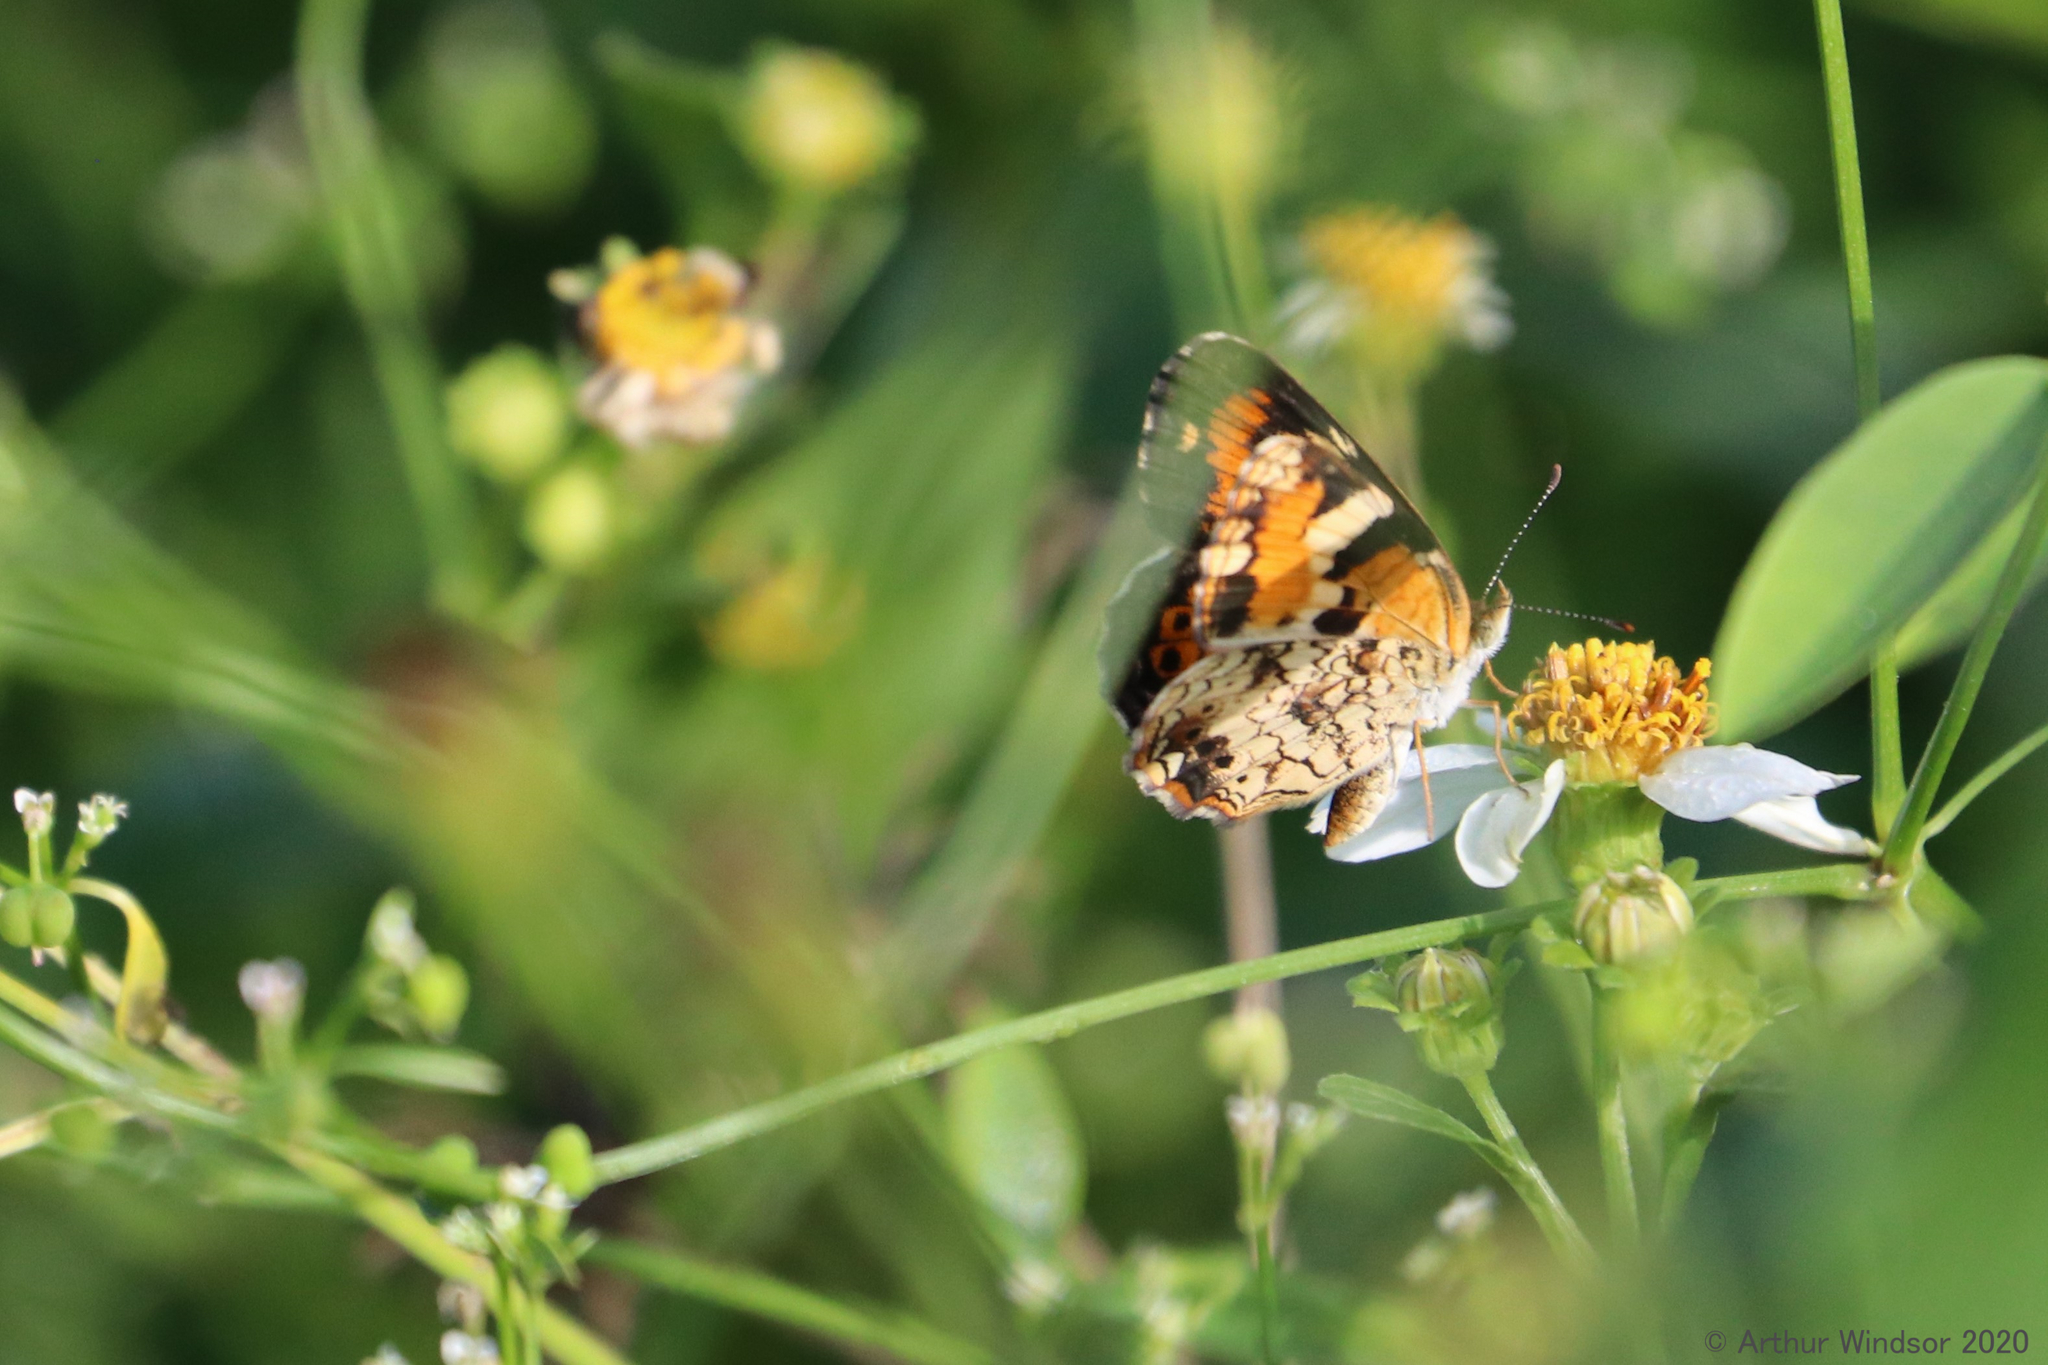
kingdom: Animalia
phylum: Arthropoda
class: Insecta
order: Lepidoptera
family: Nymphalidae
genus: Phyciodes
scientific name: Phyciodes phaon
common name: Phaon crescent
